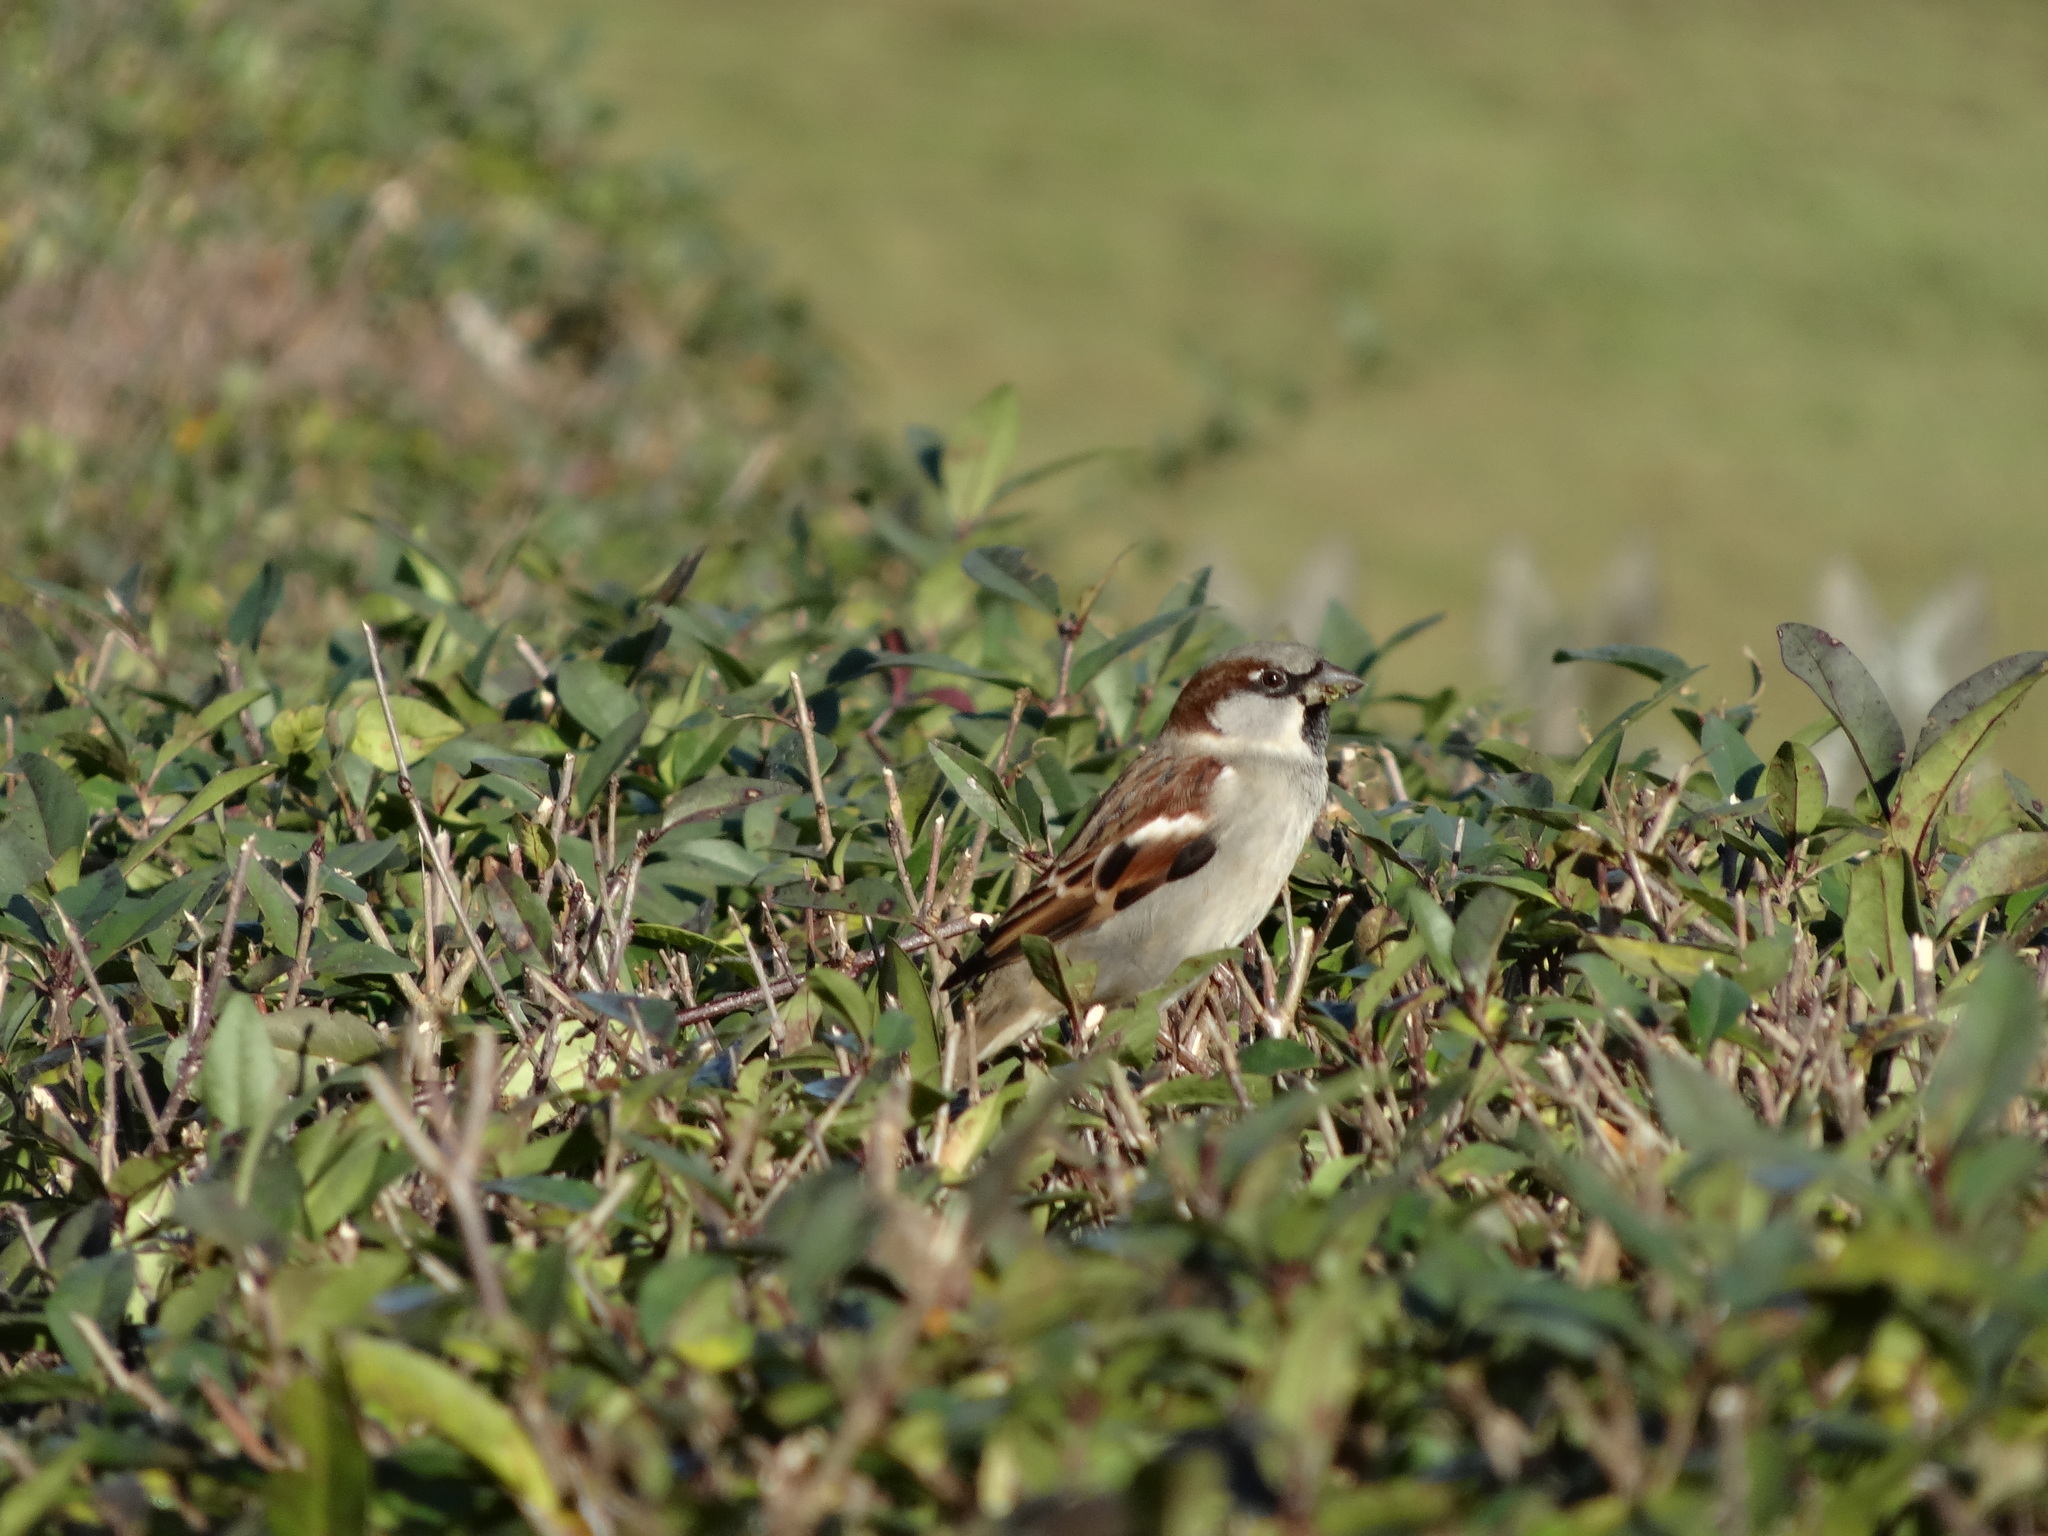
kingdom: Animalia
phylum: Chordata
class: Aves
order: Passeriformes
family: Passeridae
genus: Passer
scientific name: Passer domesticus
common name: House sparrow
